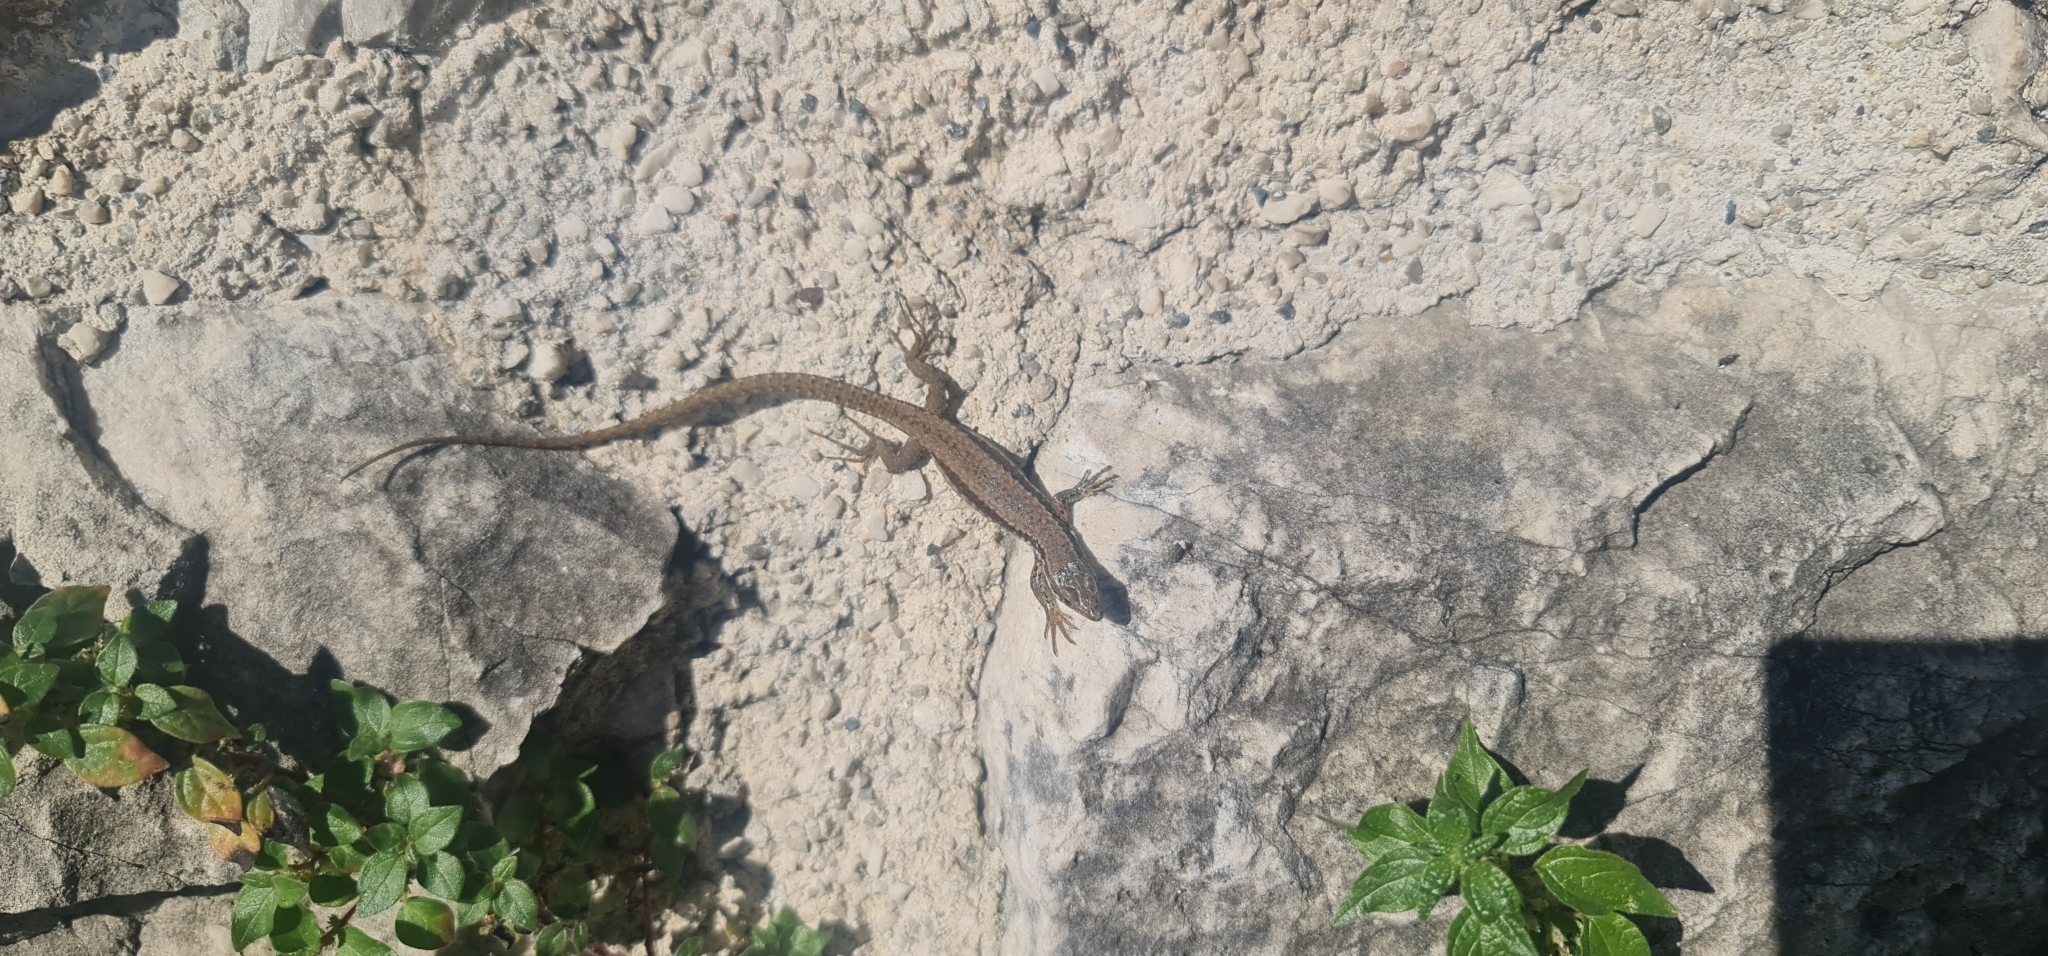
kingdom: Animalia
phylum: Chordata
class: Squamata
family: Lacertidae
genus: Podarcis
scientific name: Podarcis muralis
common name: Common wall lizard
